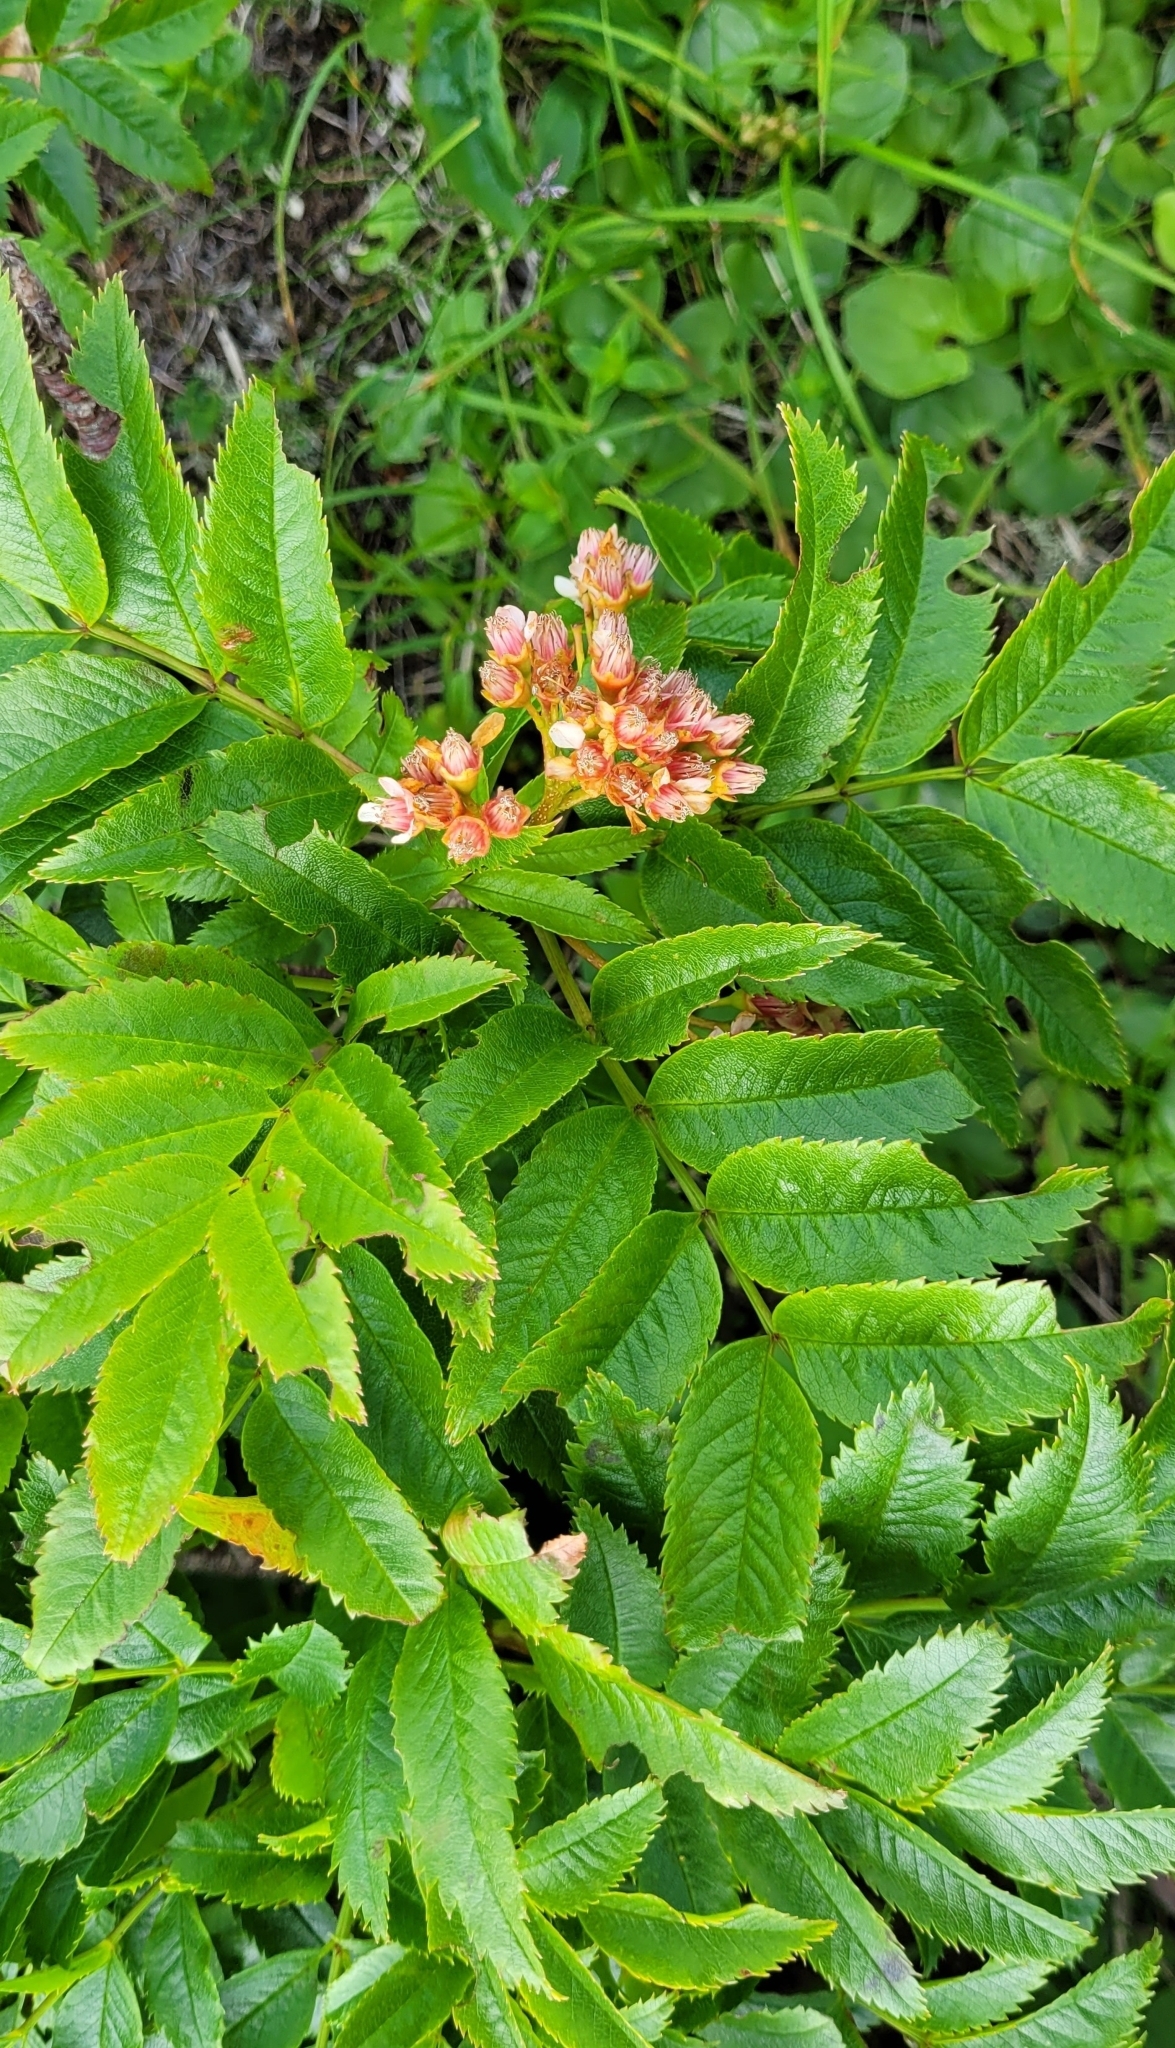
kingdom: Plantae
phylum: Tracheophyta
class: Magnoliopsida
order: Rosales
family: Rosaceae
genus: Sorbus
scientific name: Sorbus sambucifolia
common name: Siberian mountain-ash
